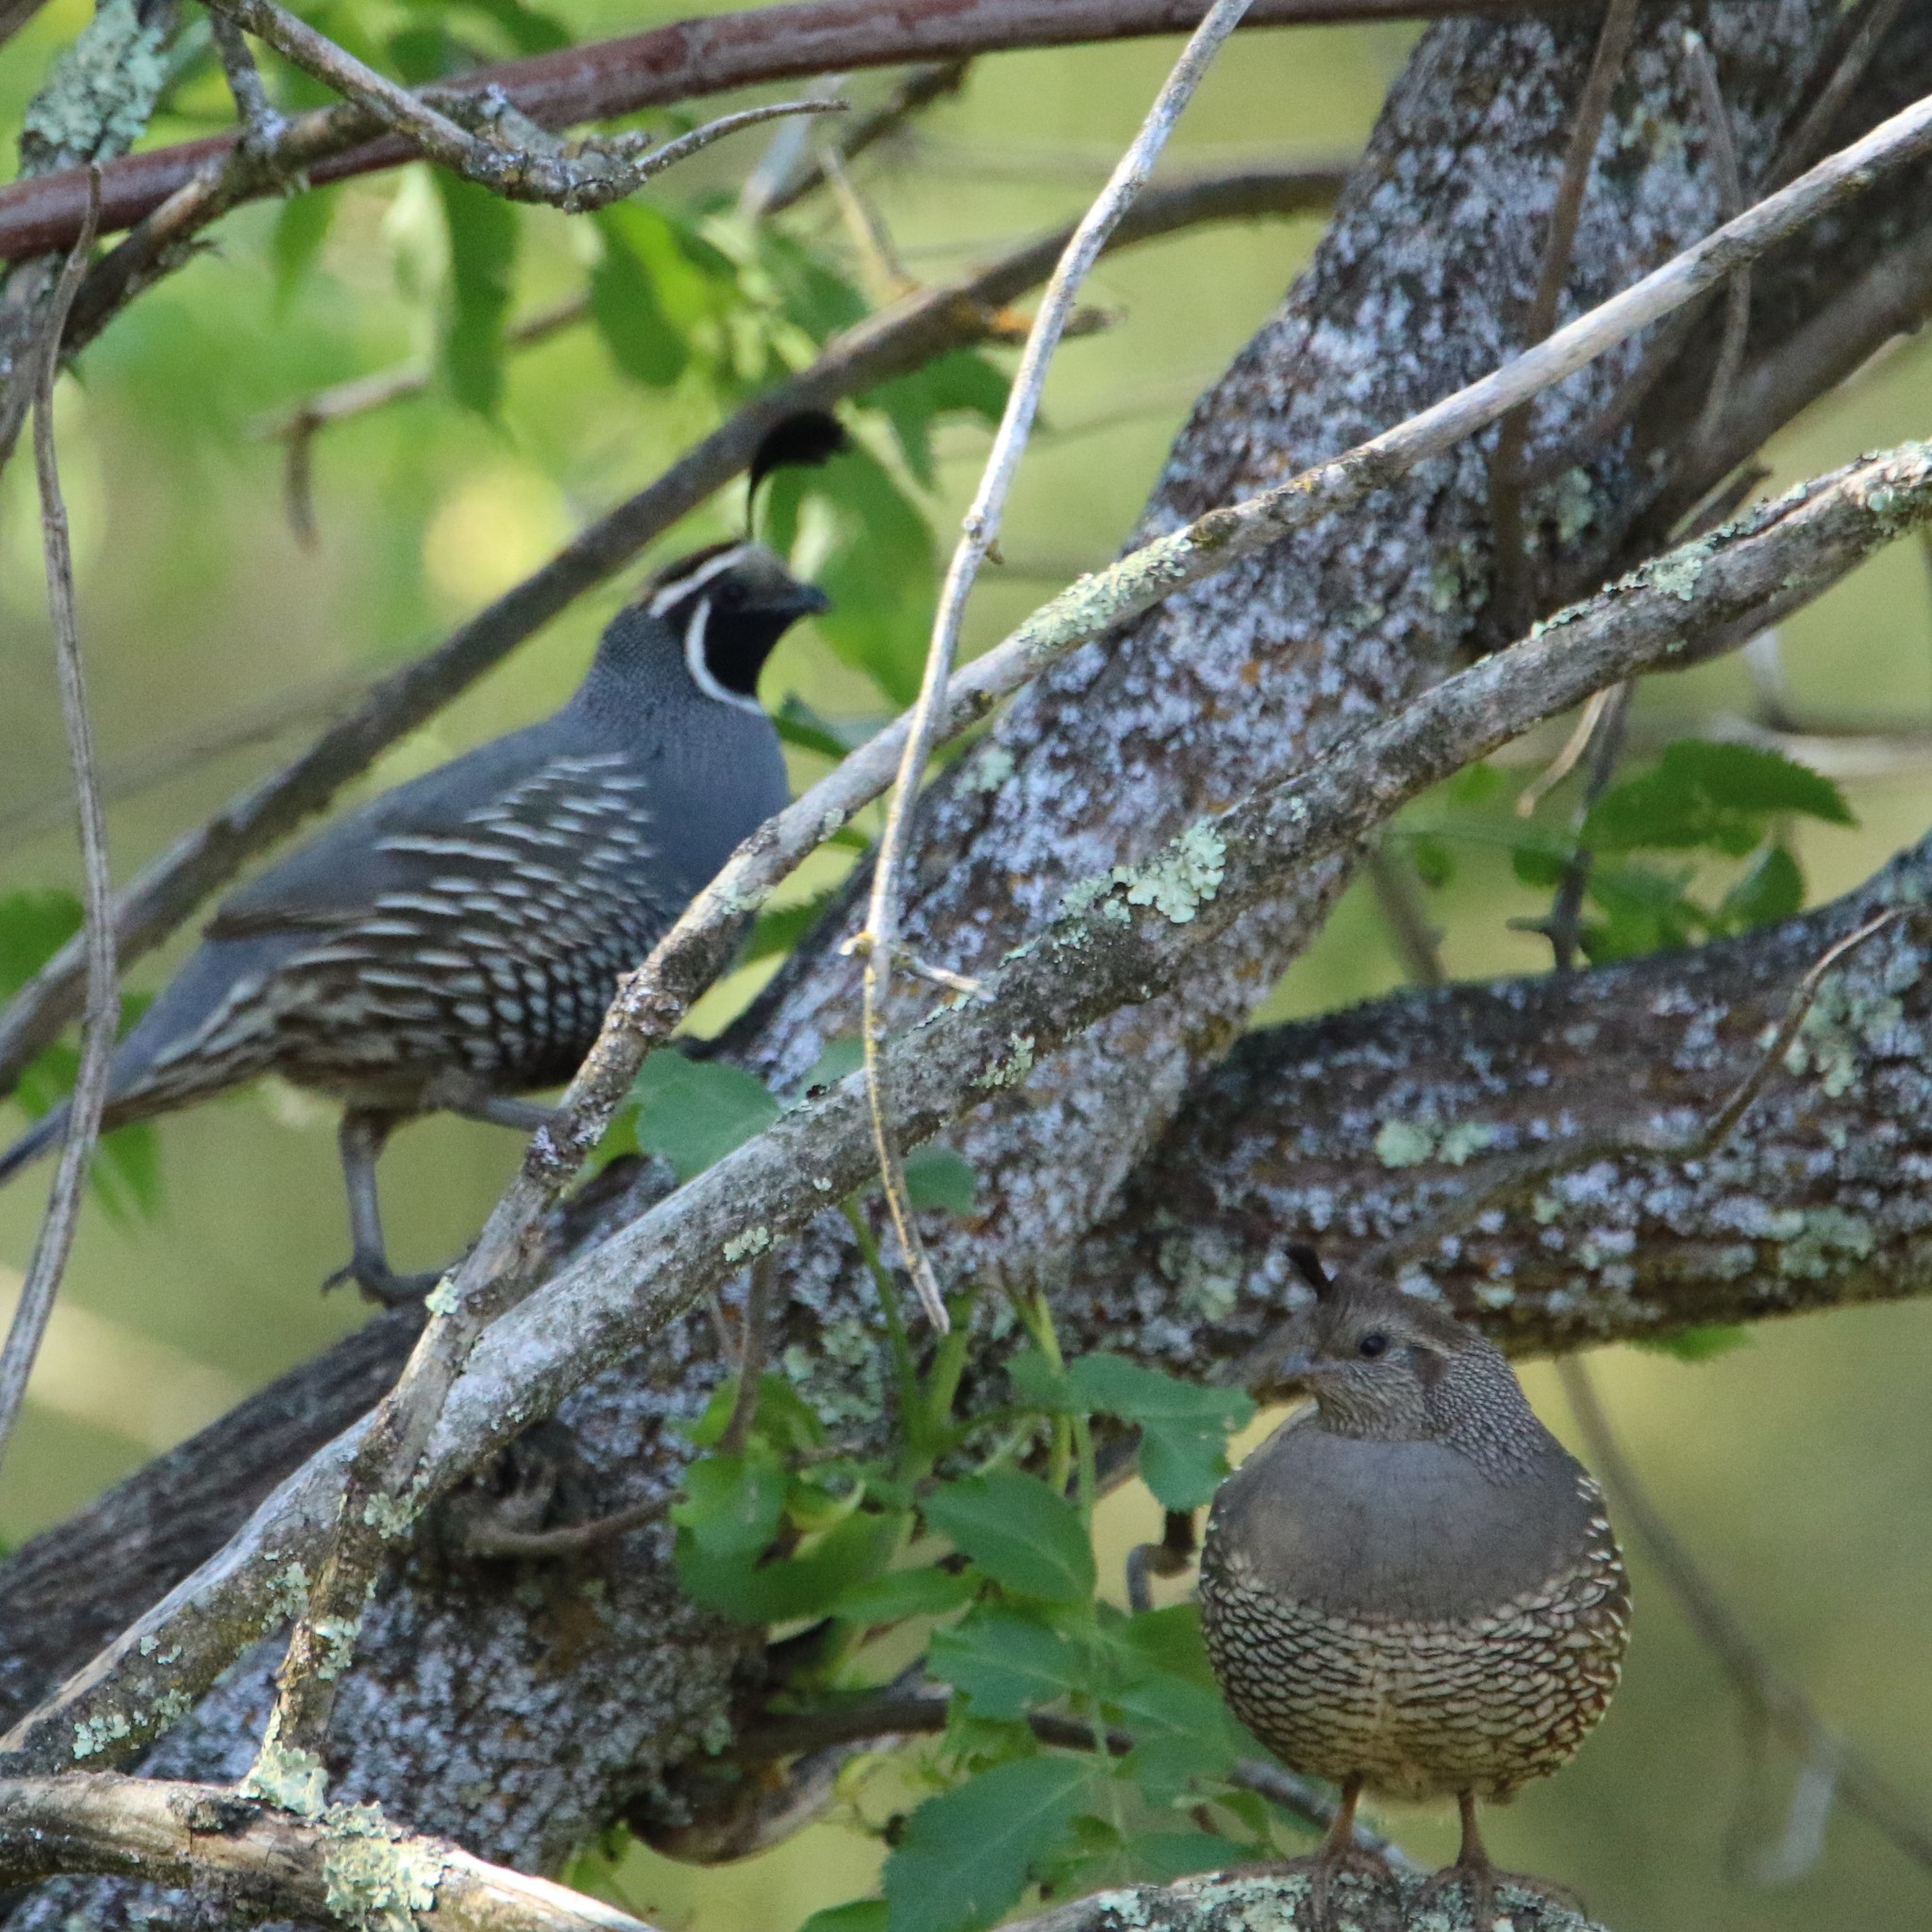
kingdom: Animalia
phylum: Chordata
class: Aves
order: Galliformes
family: Odontophoridae
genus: Callipepla
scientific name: Callipepla californica
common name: California quail
